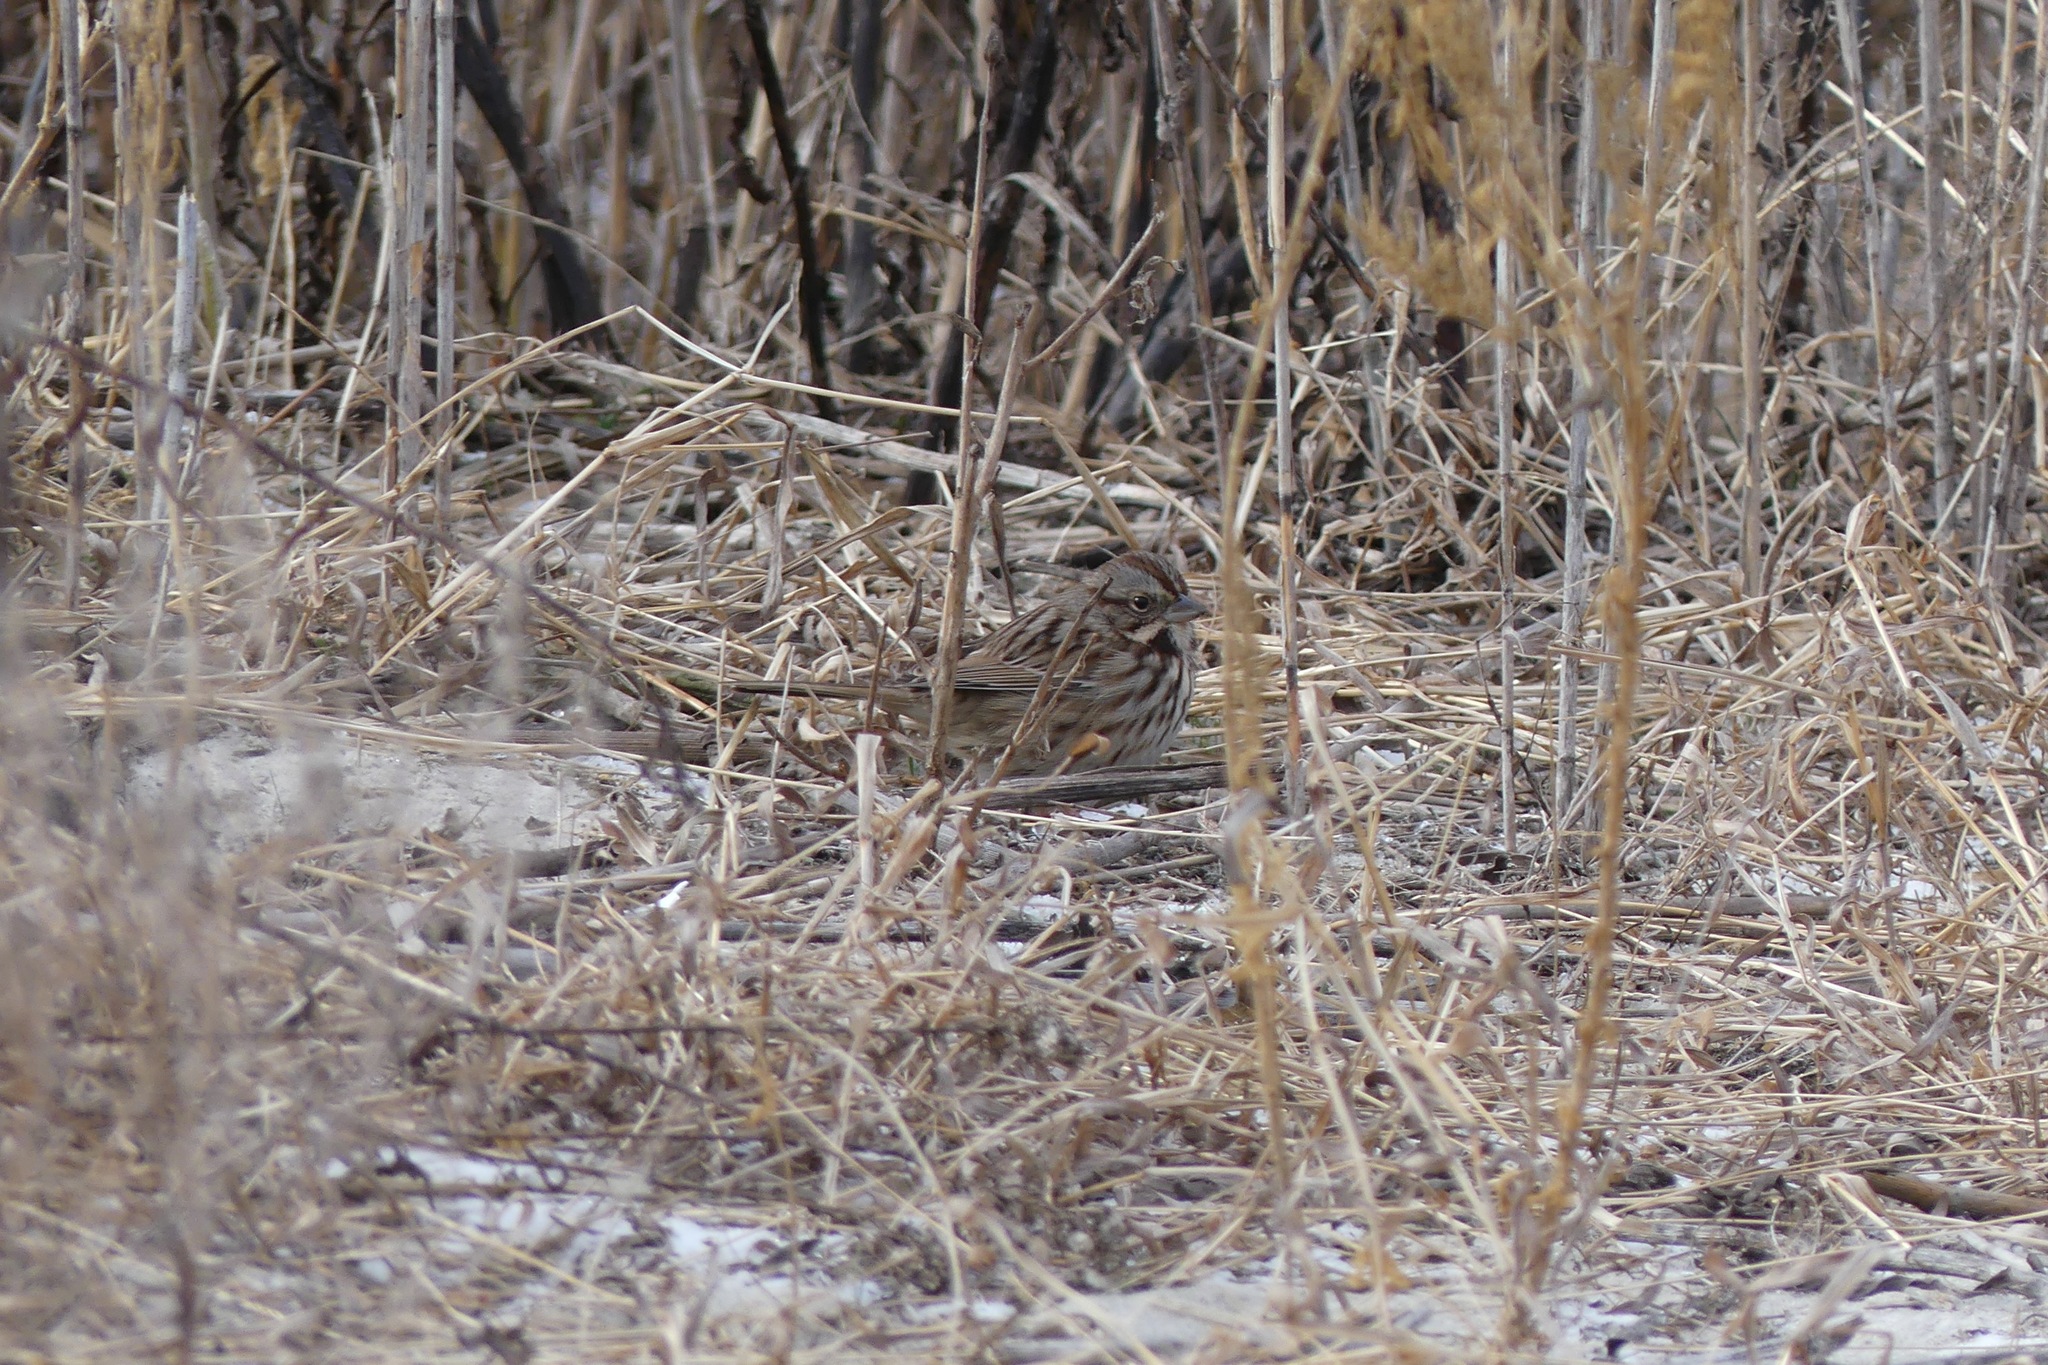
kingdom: Animalia
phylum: Chordata
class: Aves
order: Passeriformes
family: Passerellidae
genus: Melospiza
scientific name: Melospiza melodia
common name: Song sparrow
